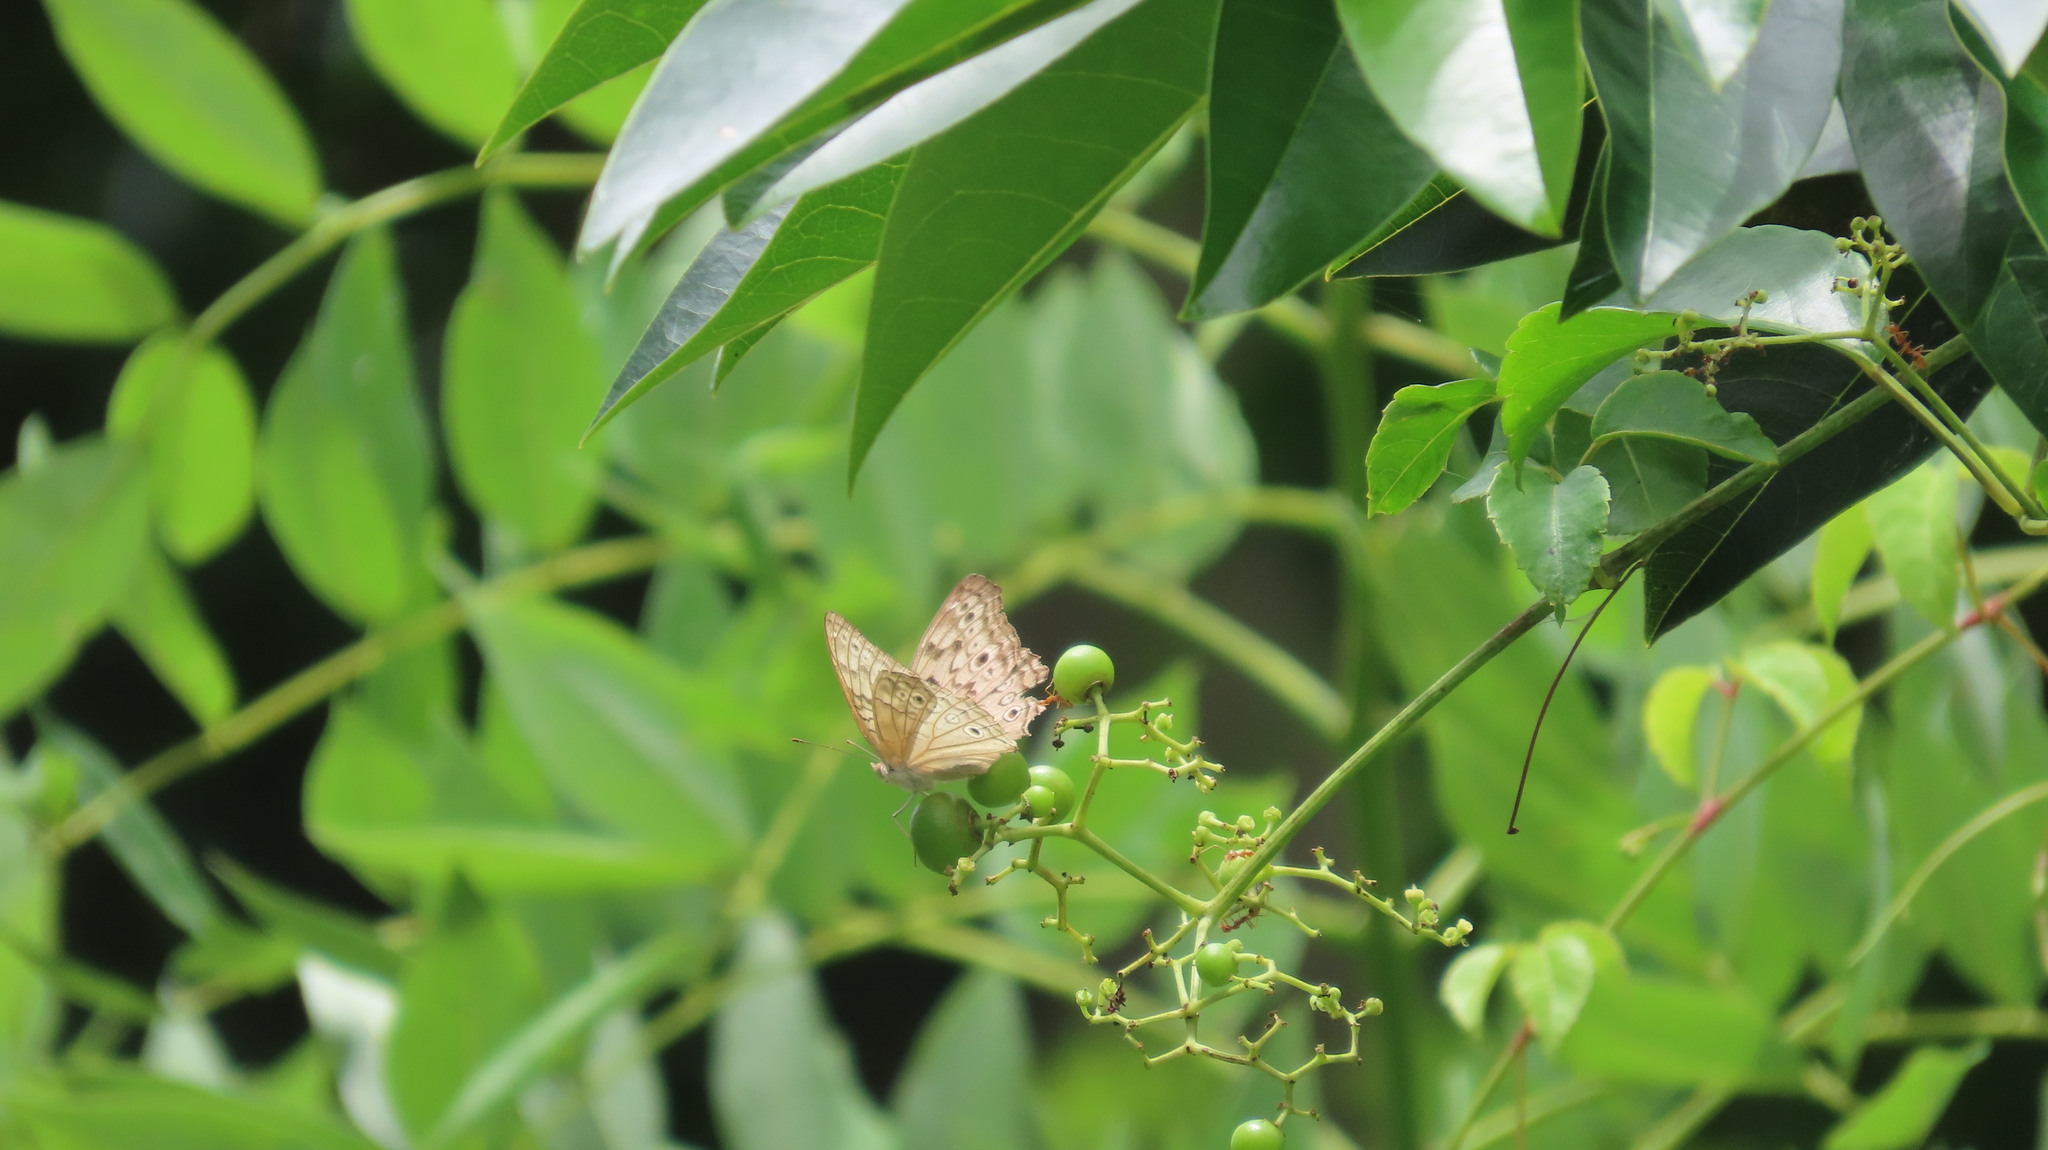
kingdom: Animalia
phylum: Arthropoda
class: Insecta
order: Lepidoptera
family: Nymphalidae
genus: Junonia
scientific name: Junonia atlites
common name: Grey pansy
